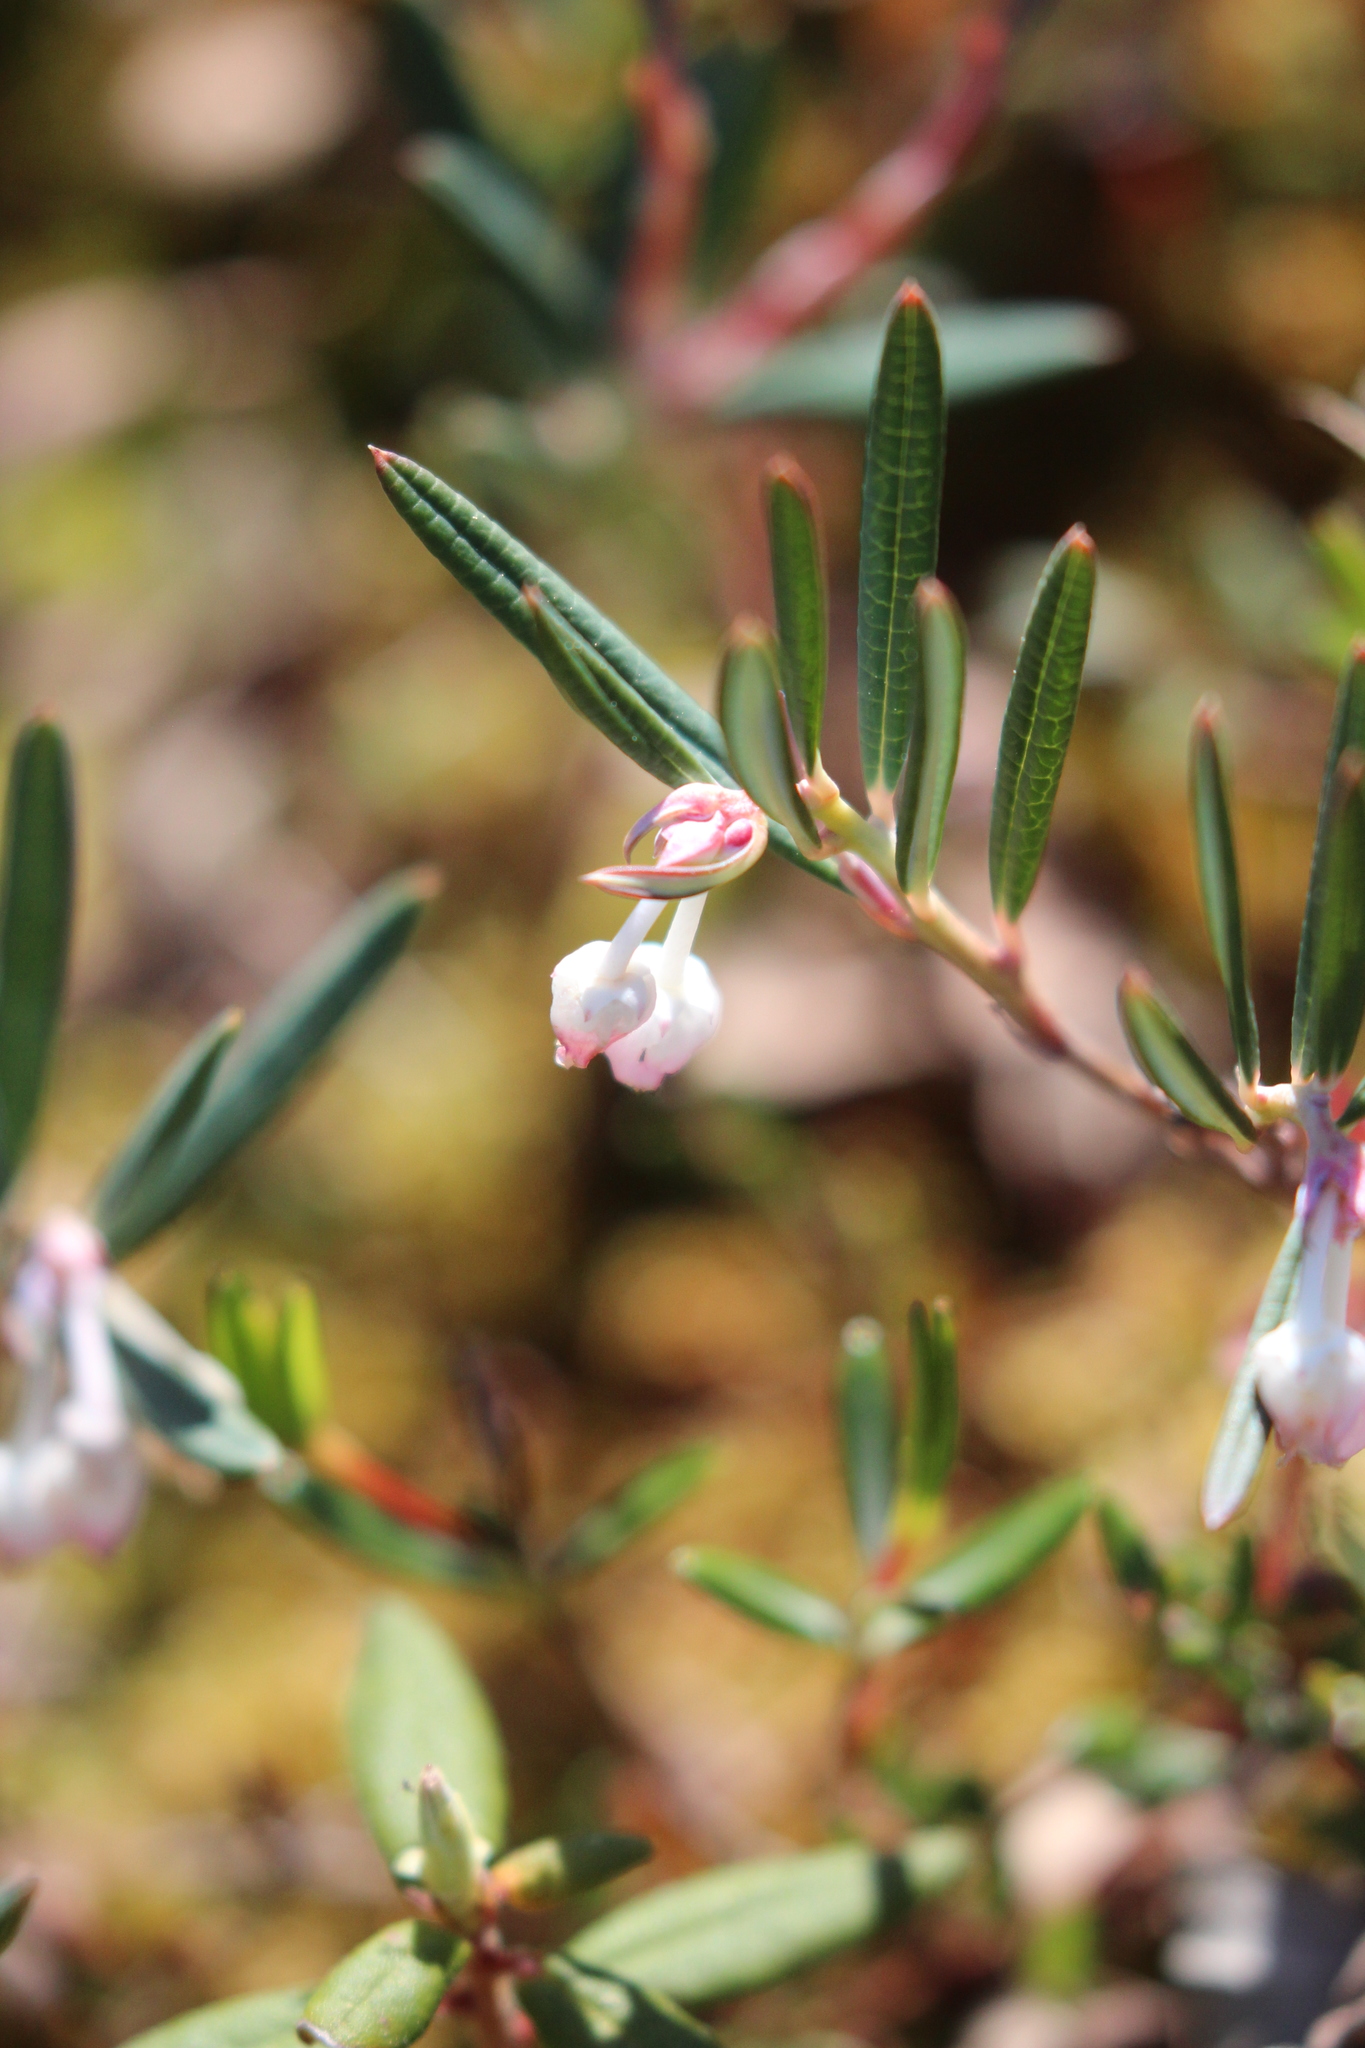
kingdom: Plantae
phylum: Tracheophyta
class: Magnoliopsida
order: Ericales
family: Ericaceae
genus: Andromeda
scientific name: Andromeda polifolia
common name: Bog-rosemary
